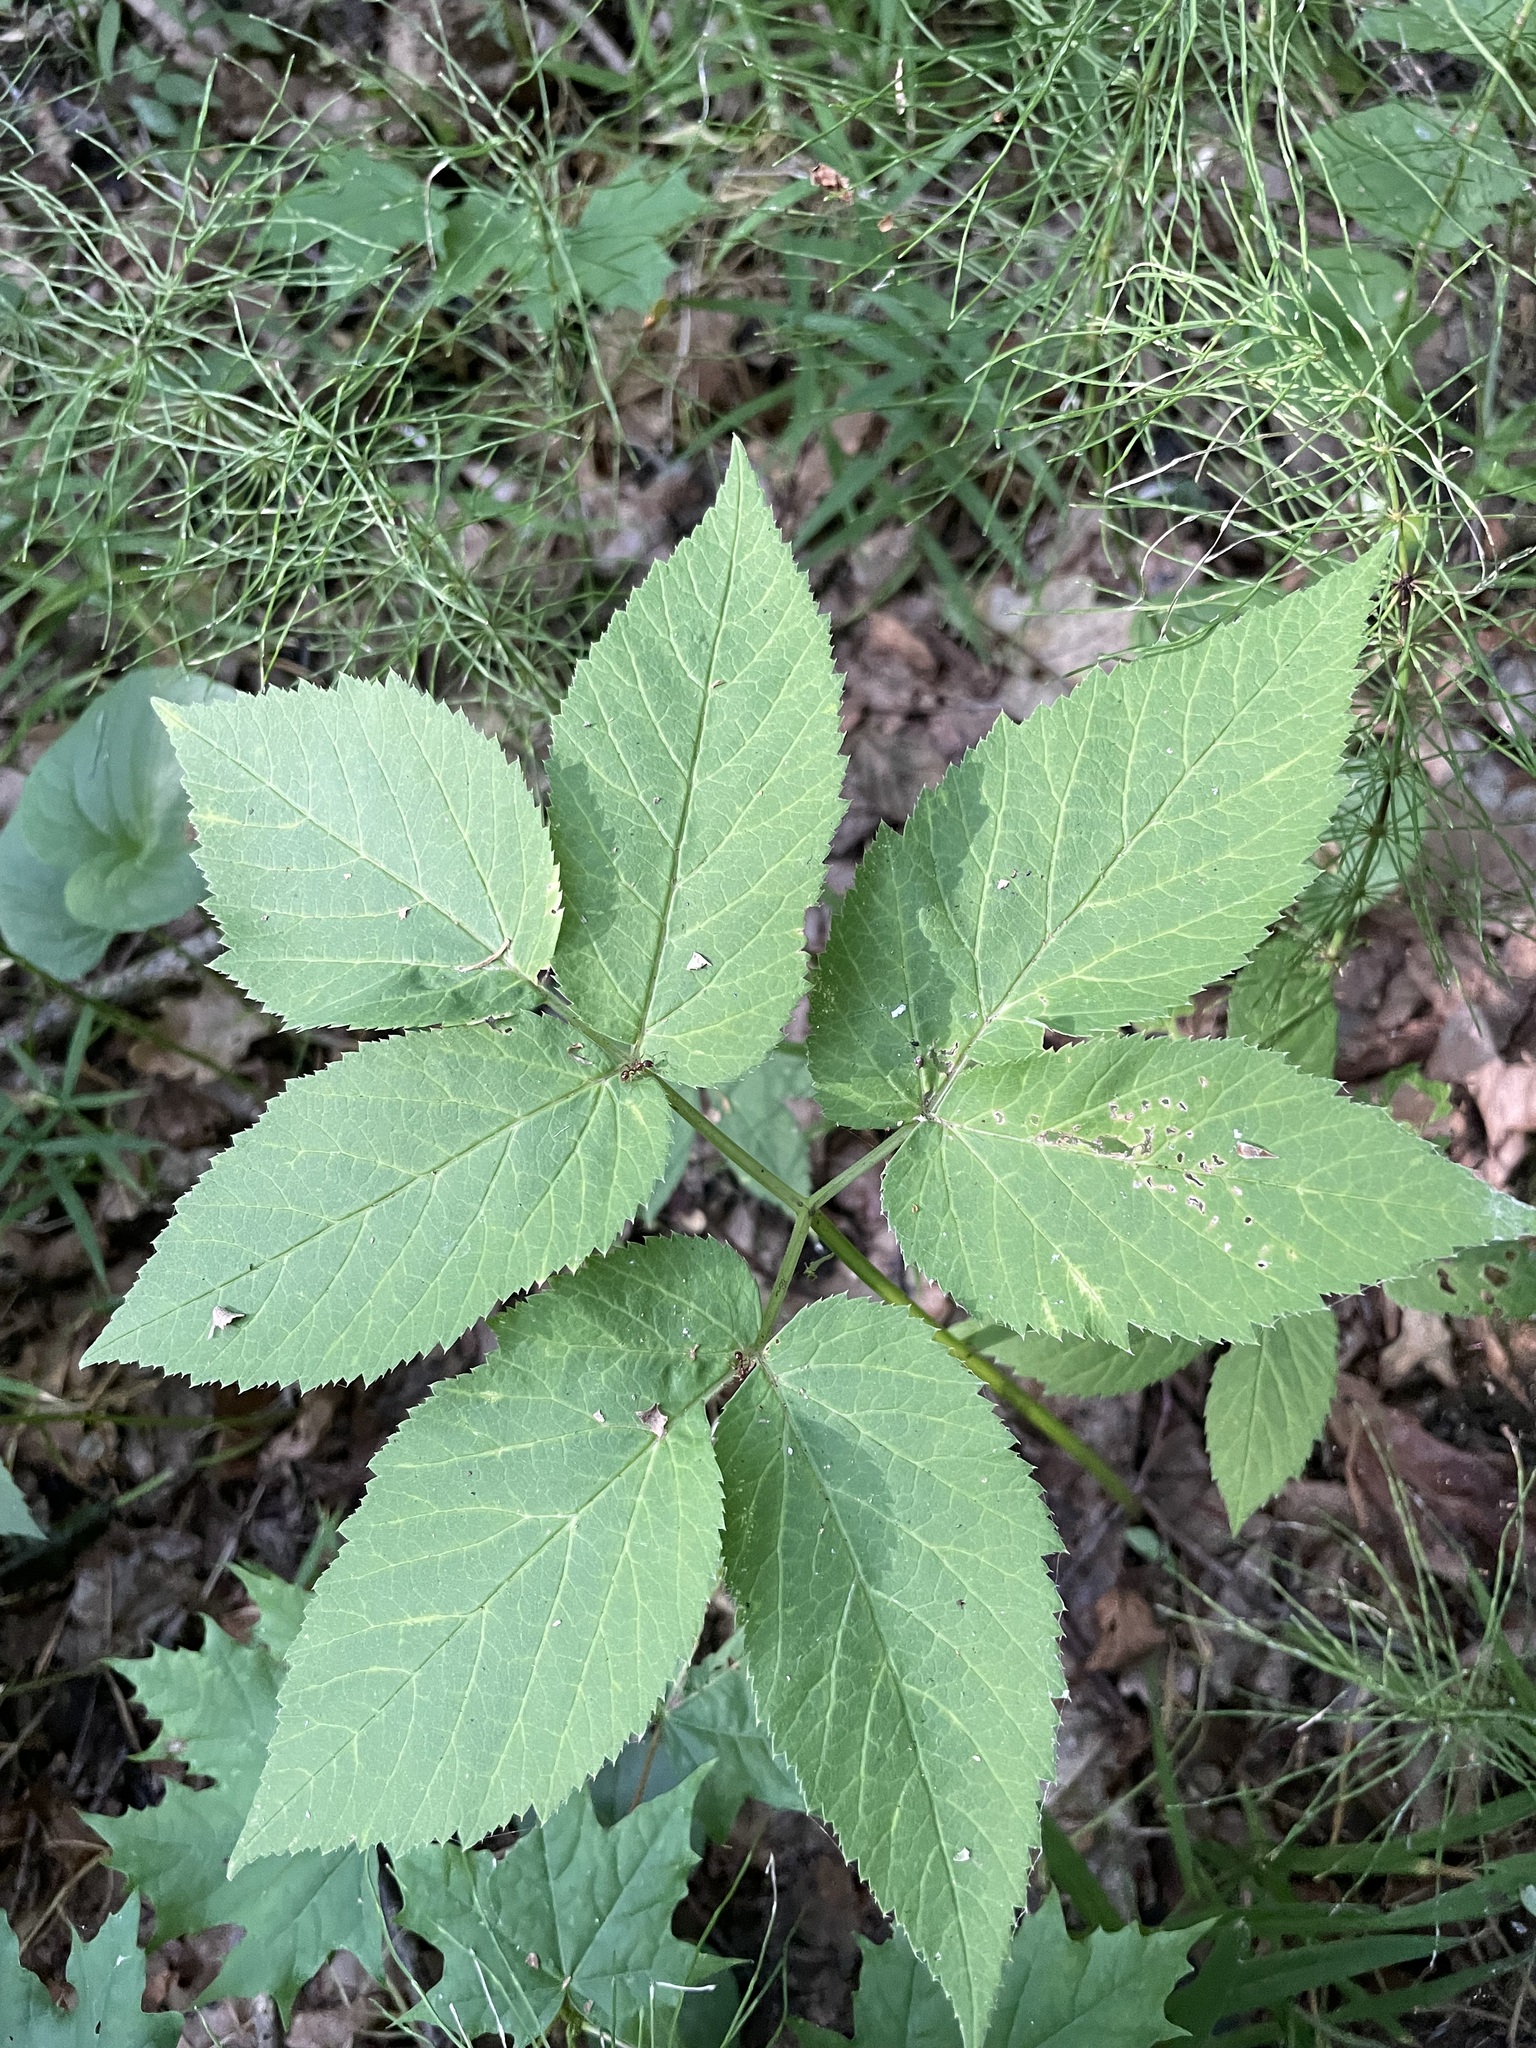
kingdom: Plantae
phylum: Tracheophyta
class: Magnoliopsida
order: Apiales
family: Apiaceae
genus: Aegopodium
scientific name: Aegopodium podagraria
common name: Ground-elder
